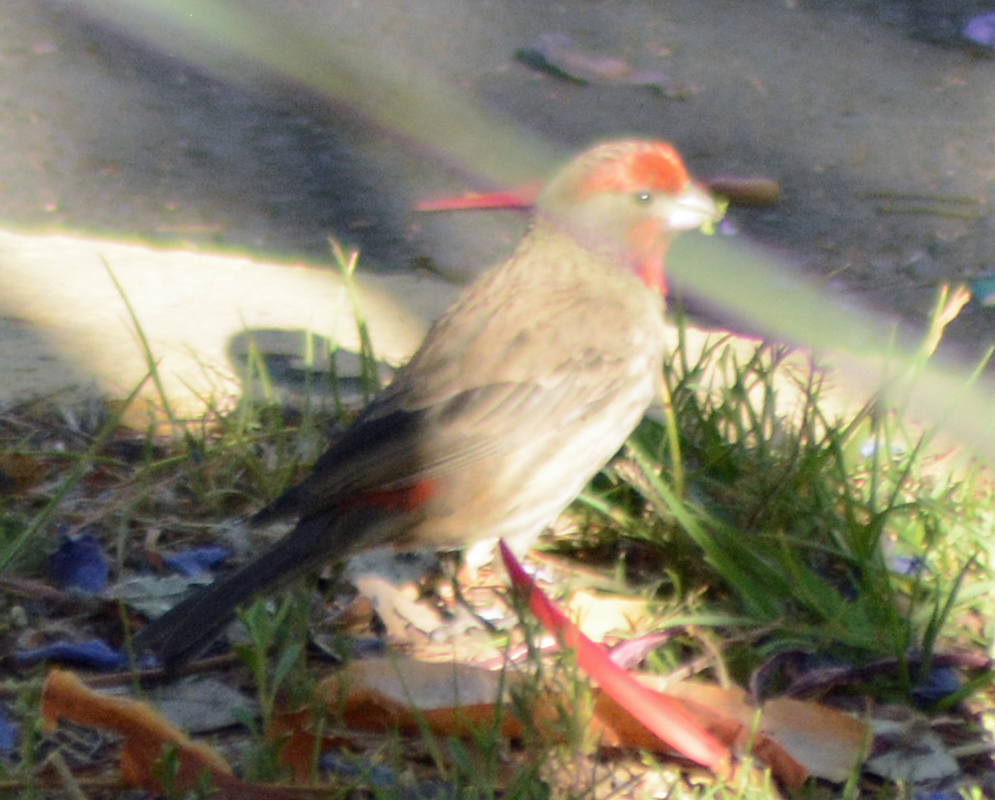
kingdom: Animalia
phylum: Chordata
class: Aves
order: Passeriformes
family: Fringillidae
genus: Haemorhous
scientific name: Haemorhous mexicanus
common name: House finch
